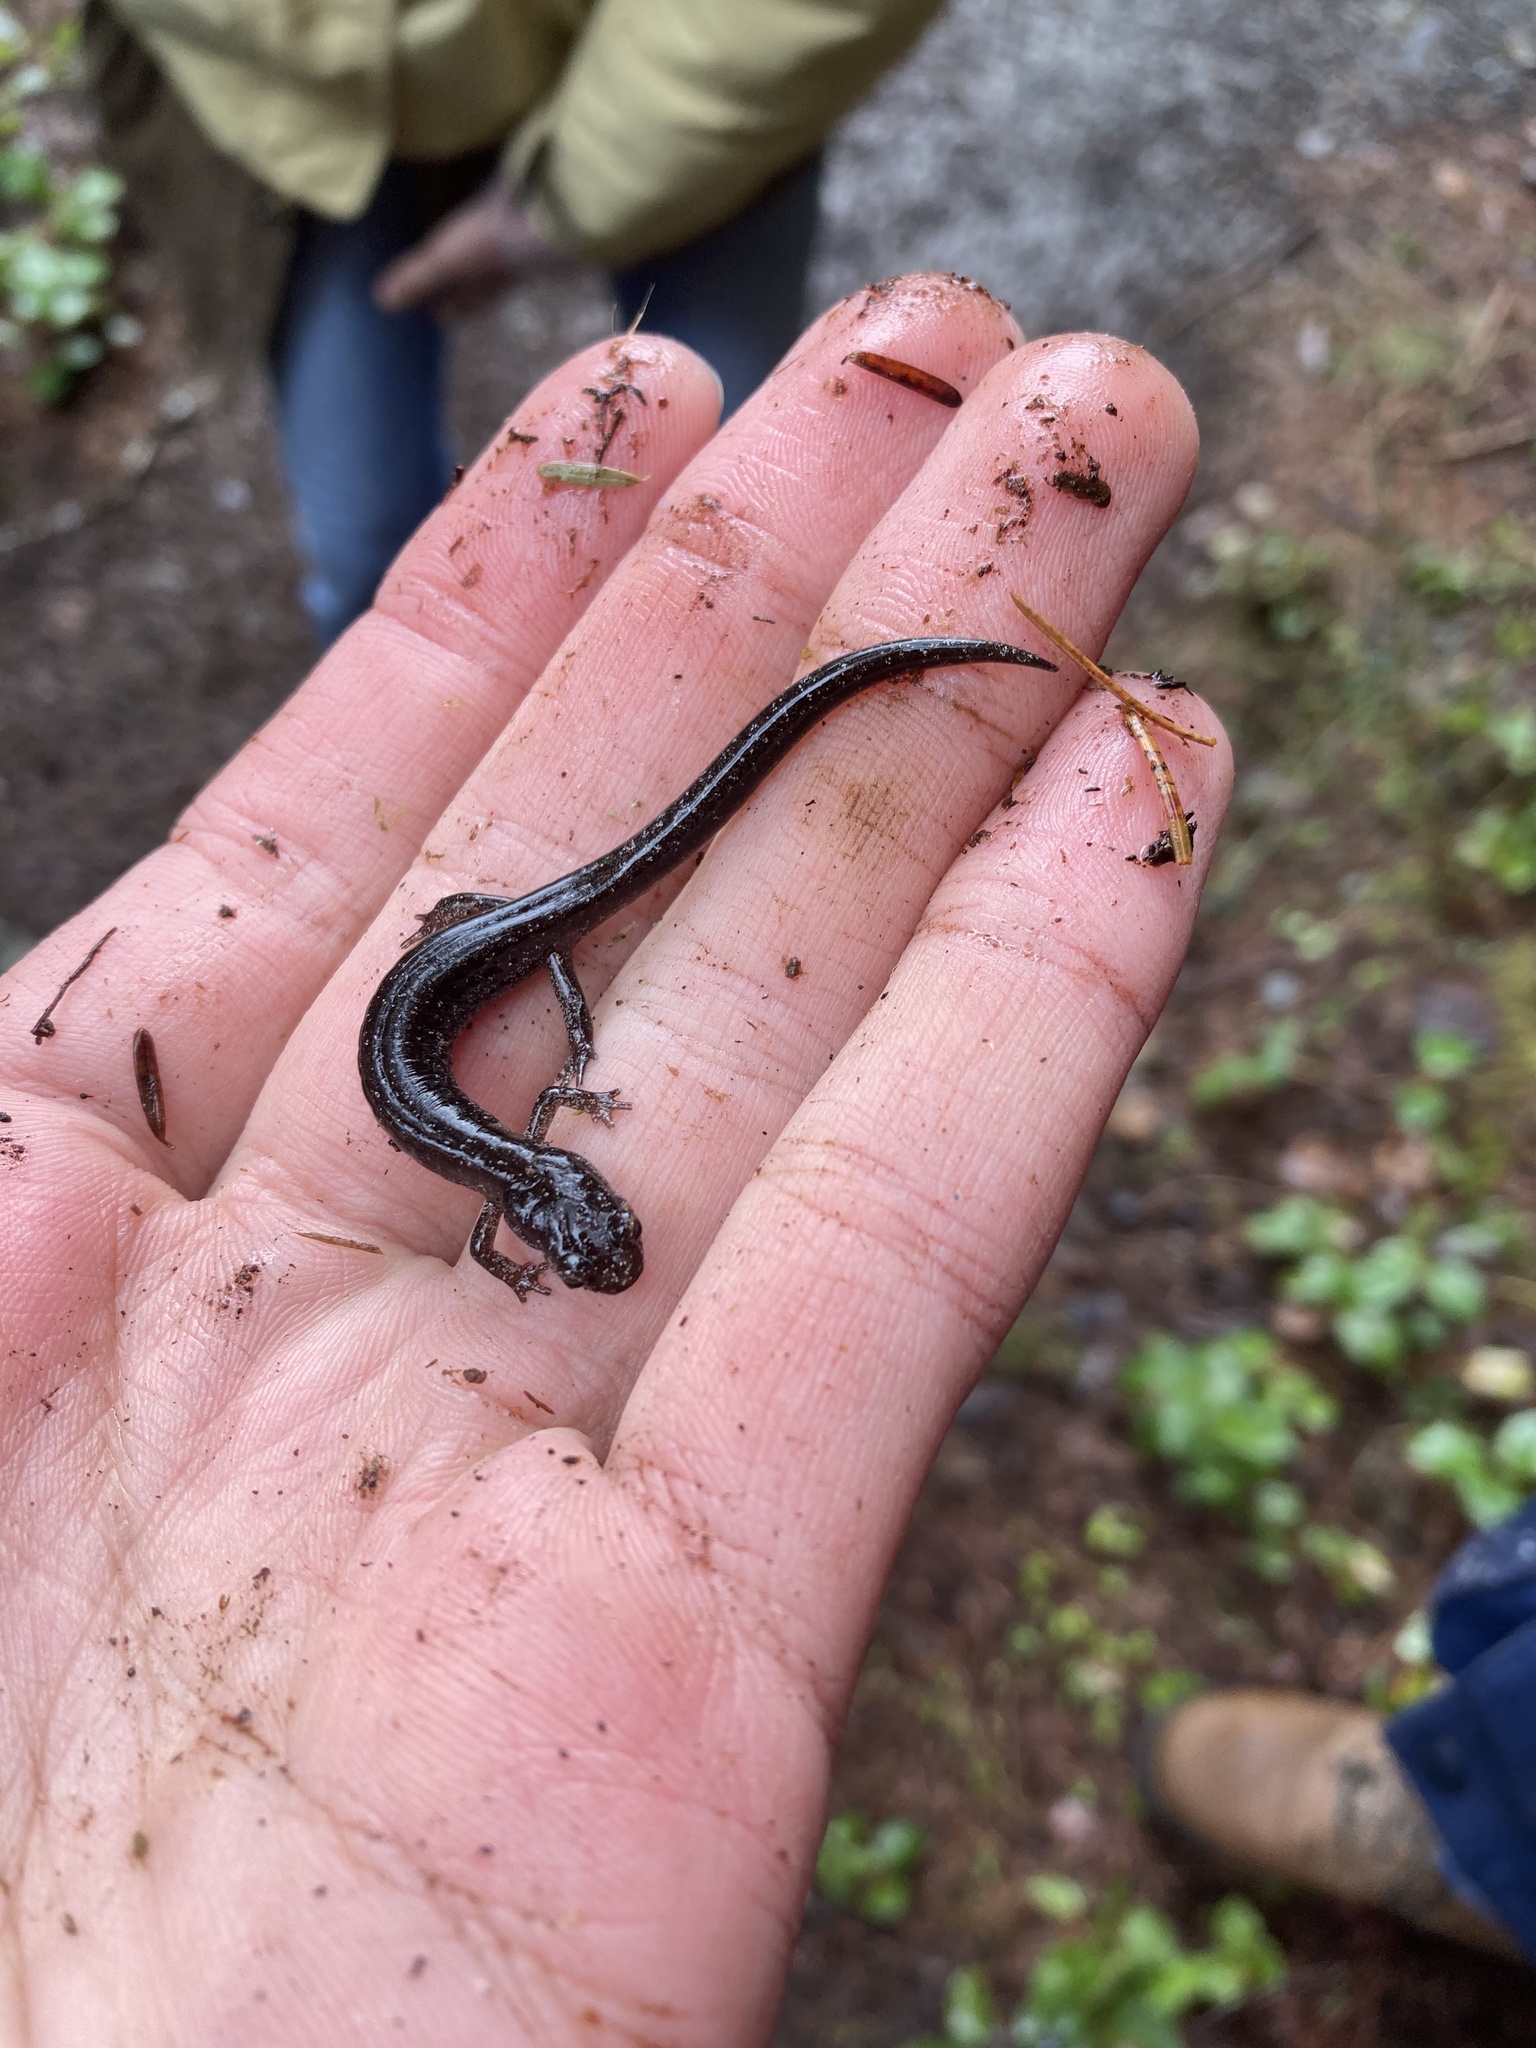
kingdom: Animalia
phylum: Chordata
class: Amphibia
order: Caudata
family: Plethodontidae
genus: Plethodon
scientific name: Plethodon vehiculum
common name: Western red-backed salamander
